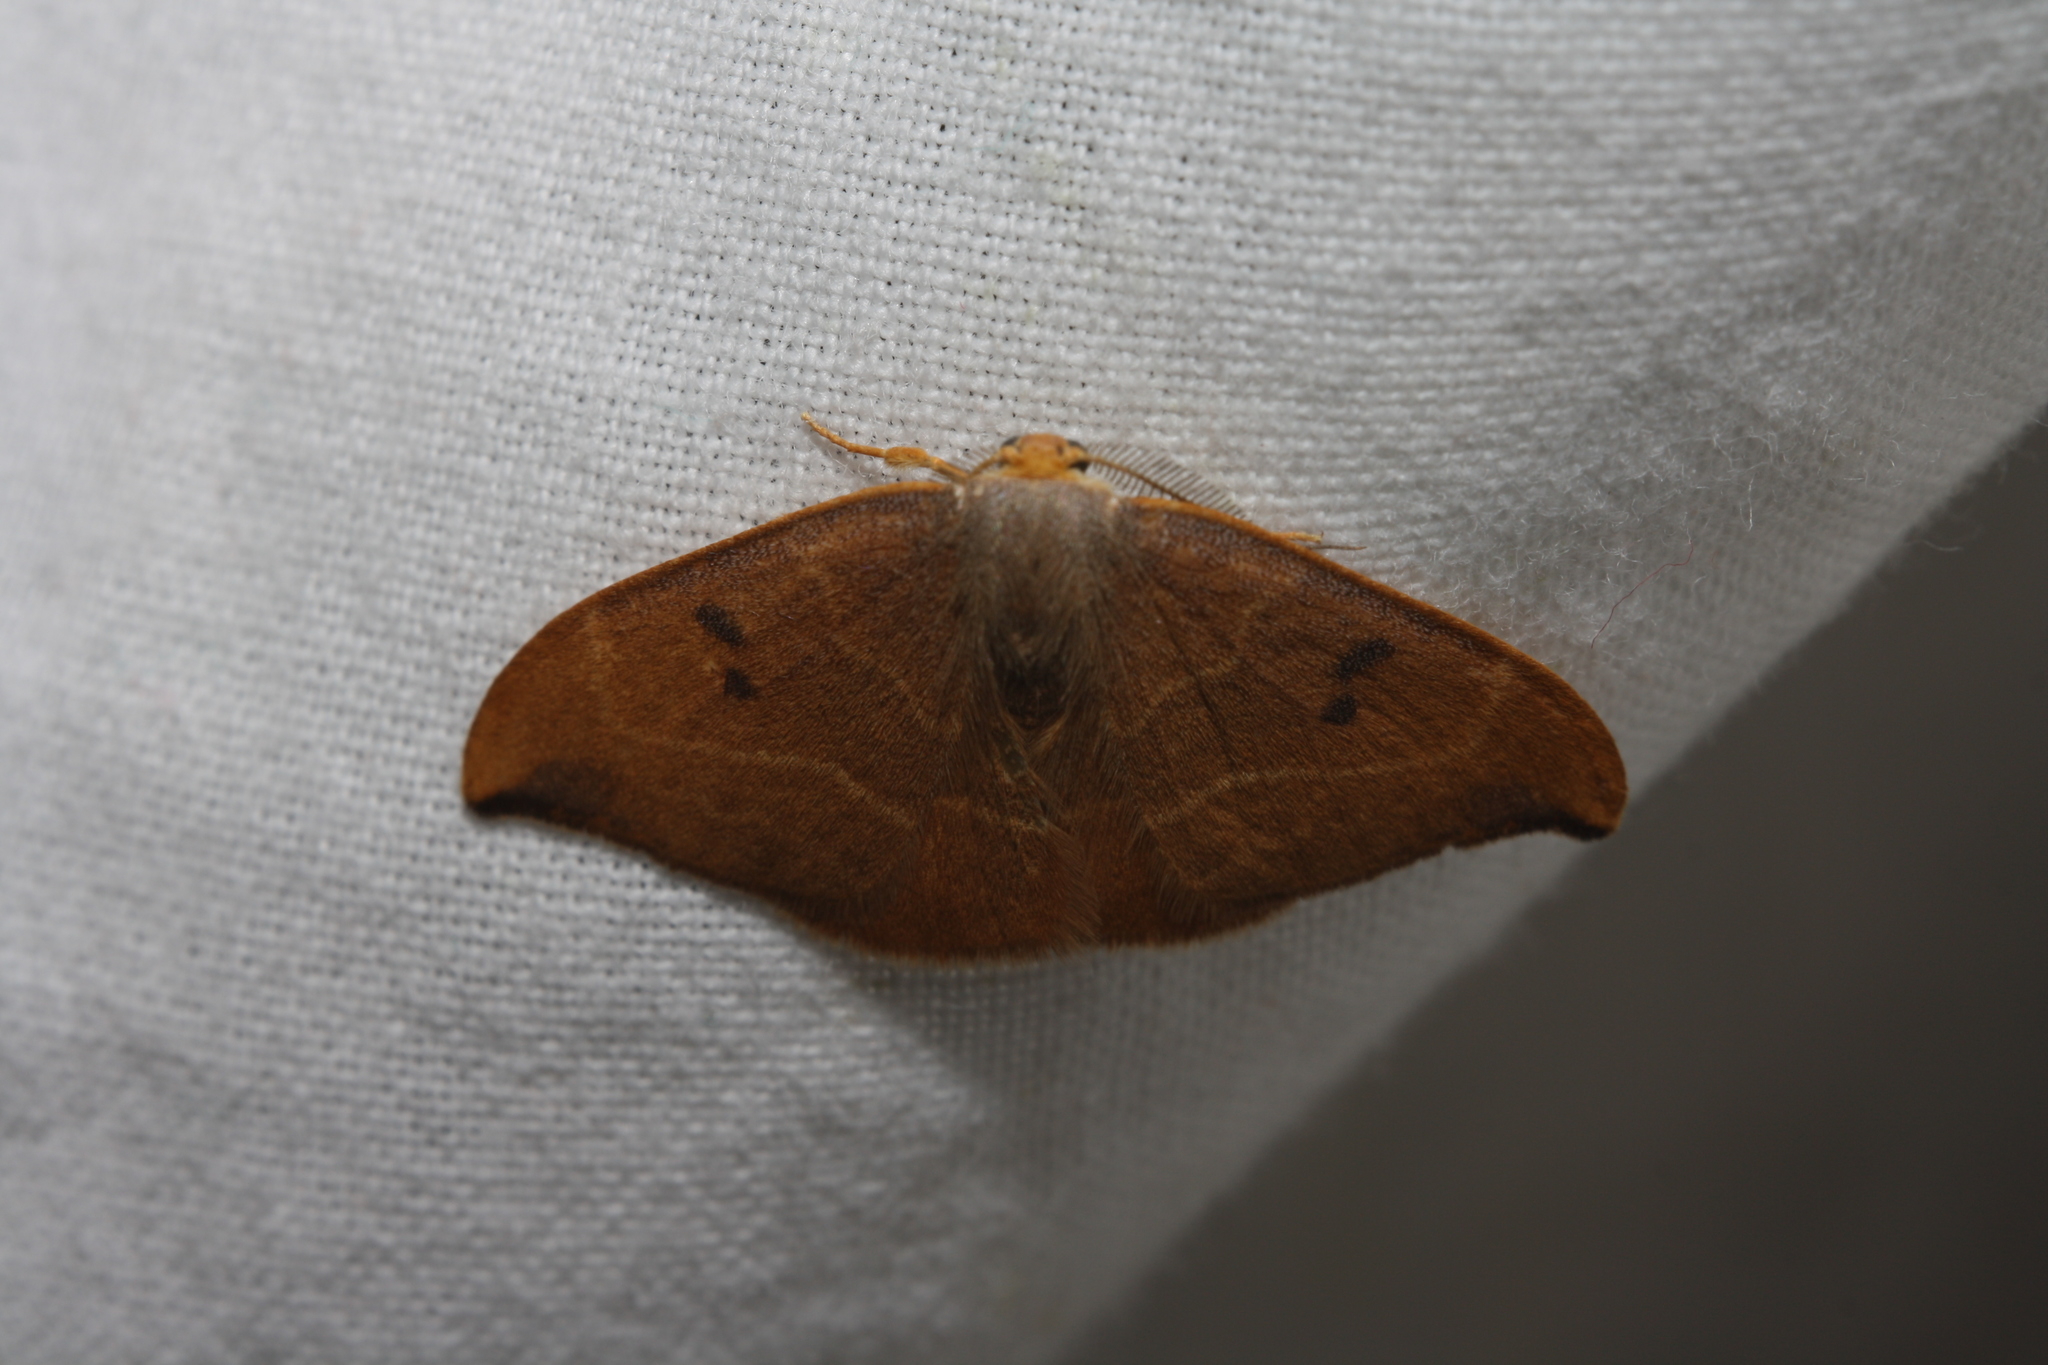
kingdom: Animalia
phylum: Arthropoda
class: Insecta
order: Lepidoptera
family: Drepanidae
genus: Watsonalla
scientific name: Watsonalla binaria
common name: Oak hook-tip
